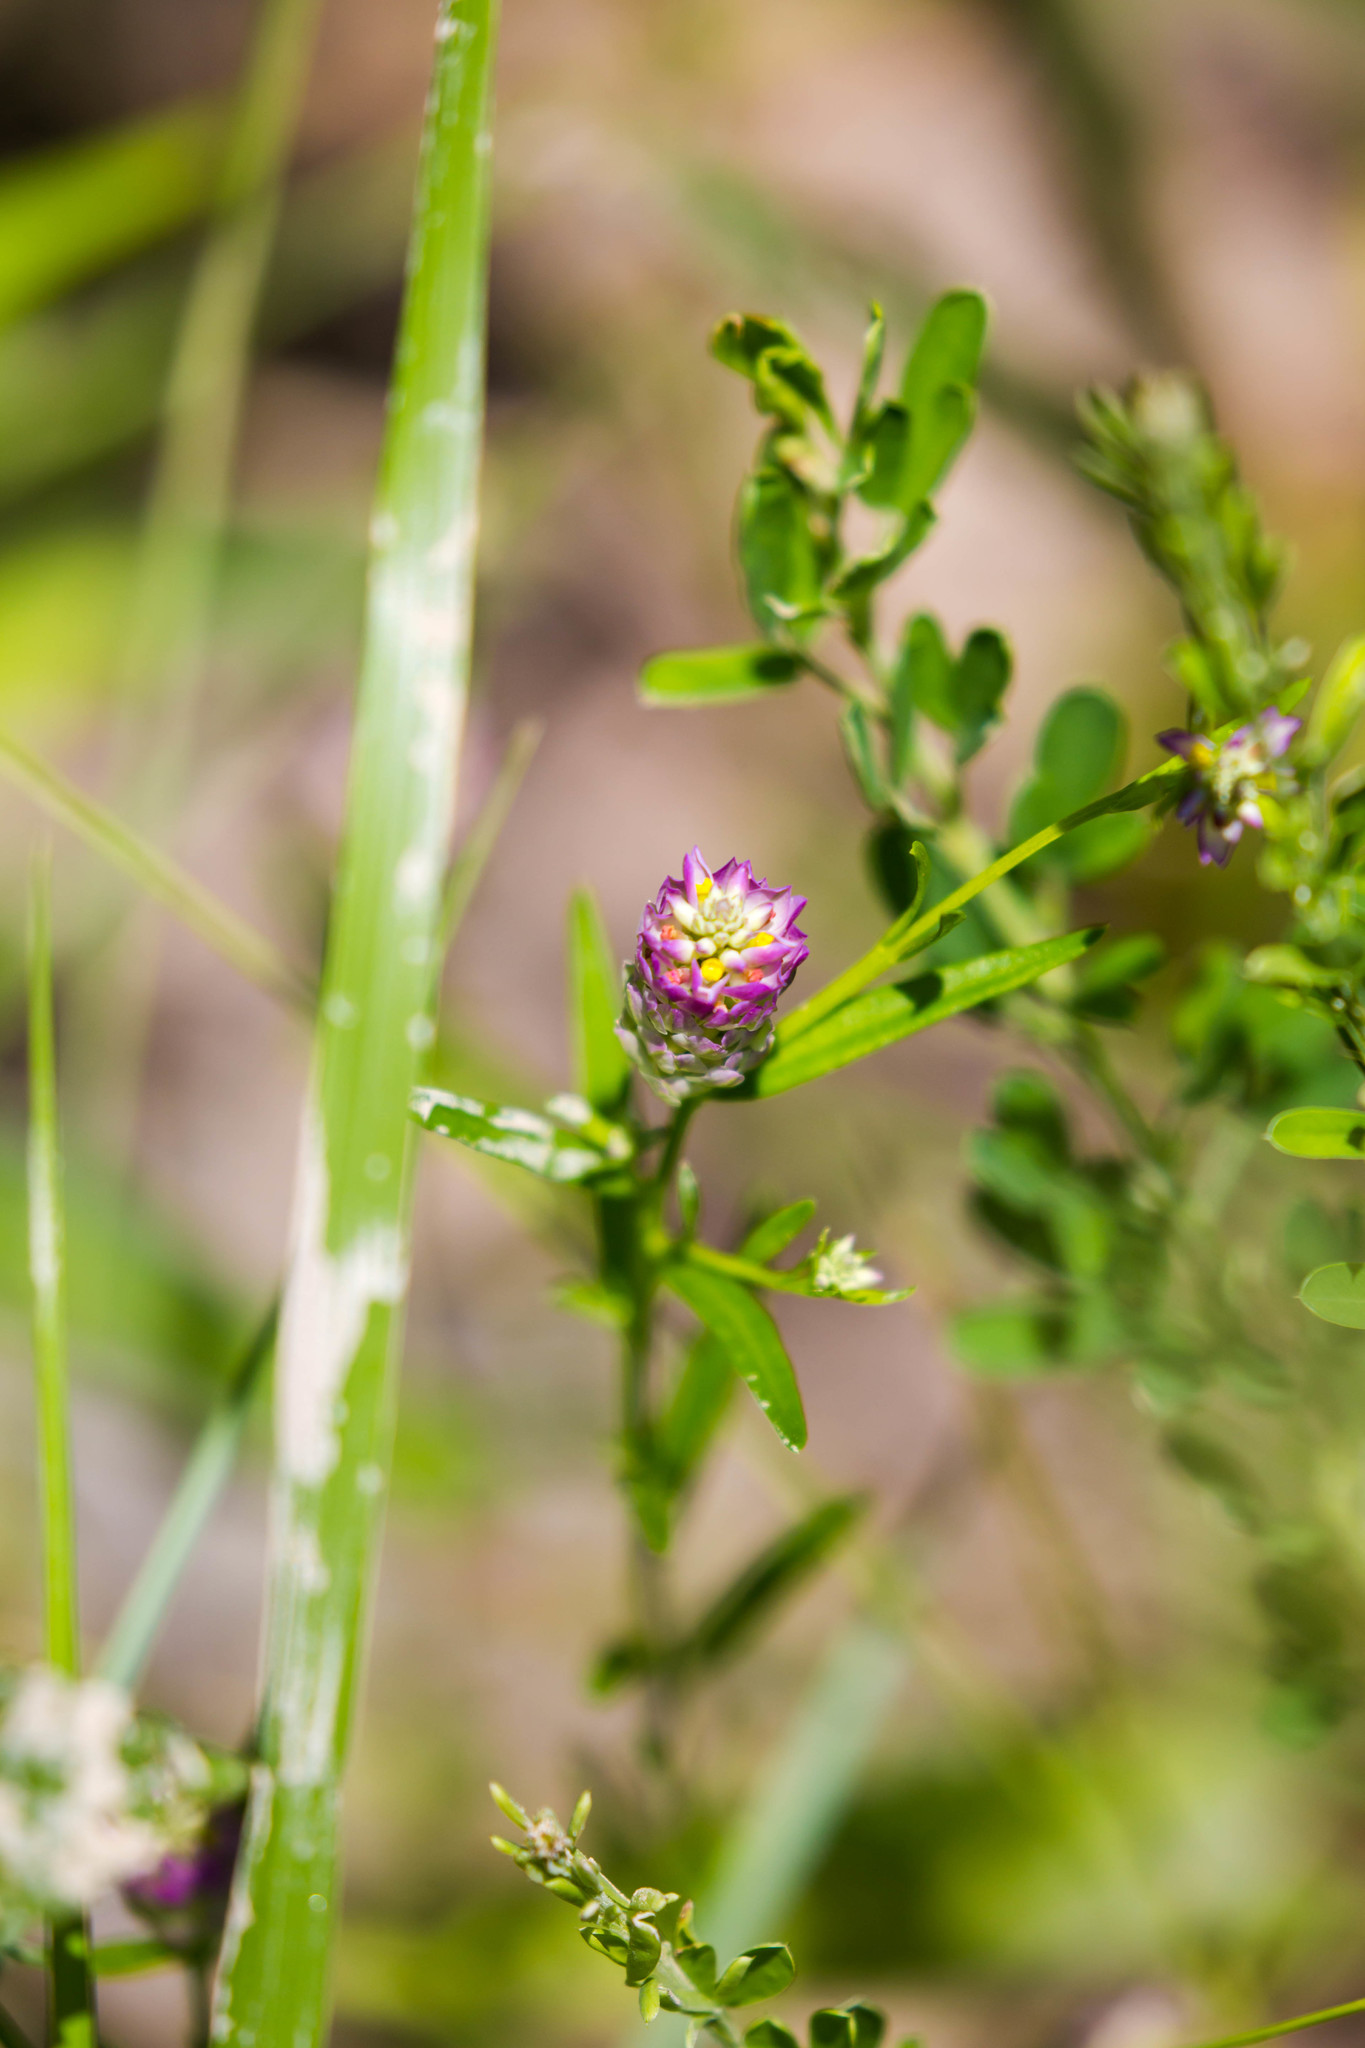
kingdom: Plantae
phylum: Tracheophyta
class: Magnoliopsida
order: Fabales
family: Polygalaceae
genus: Polygala
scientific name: Polygala sanguinea
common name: Blood milkwort
